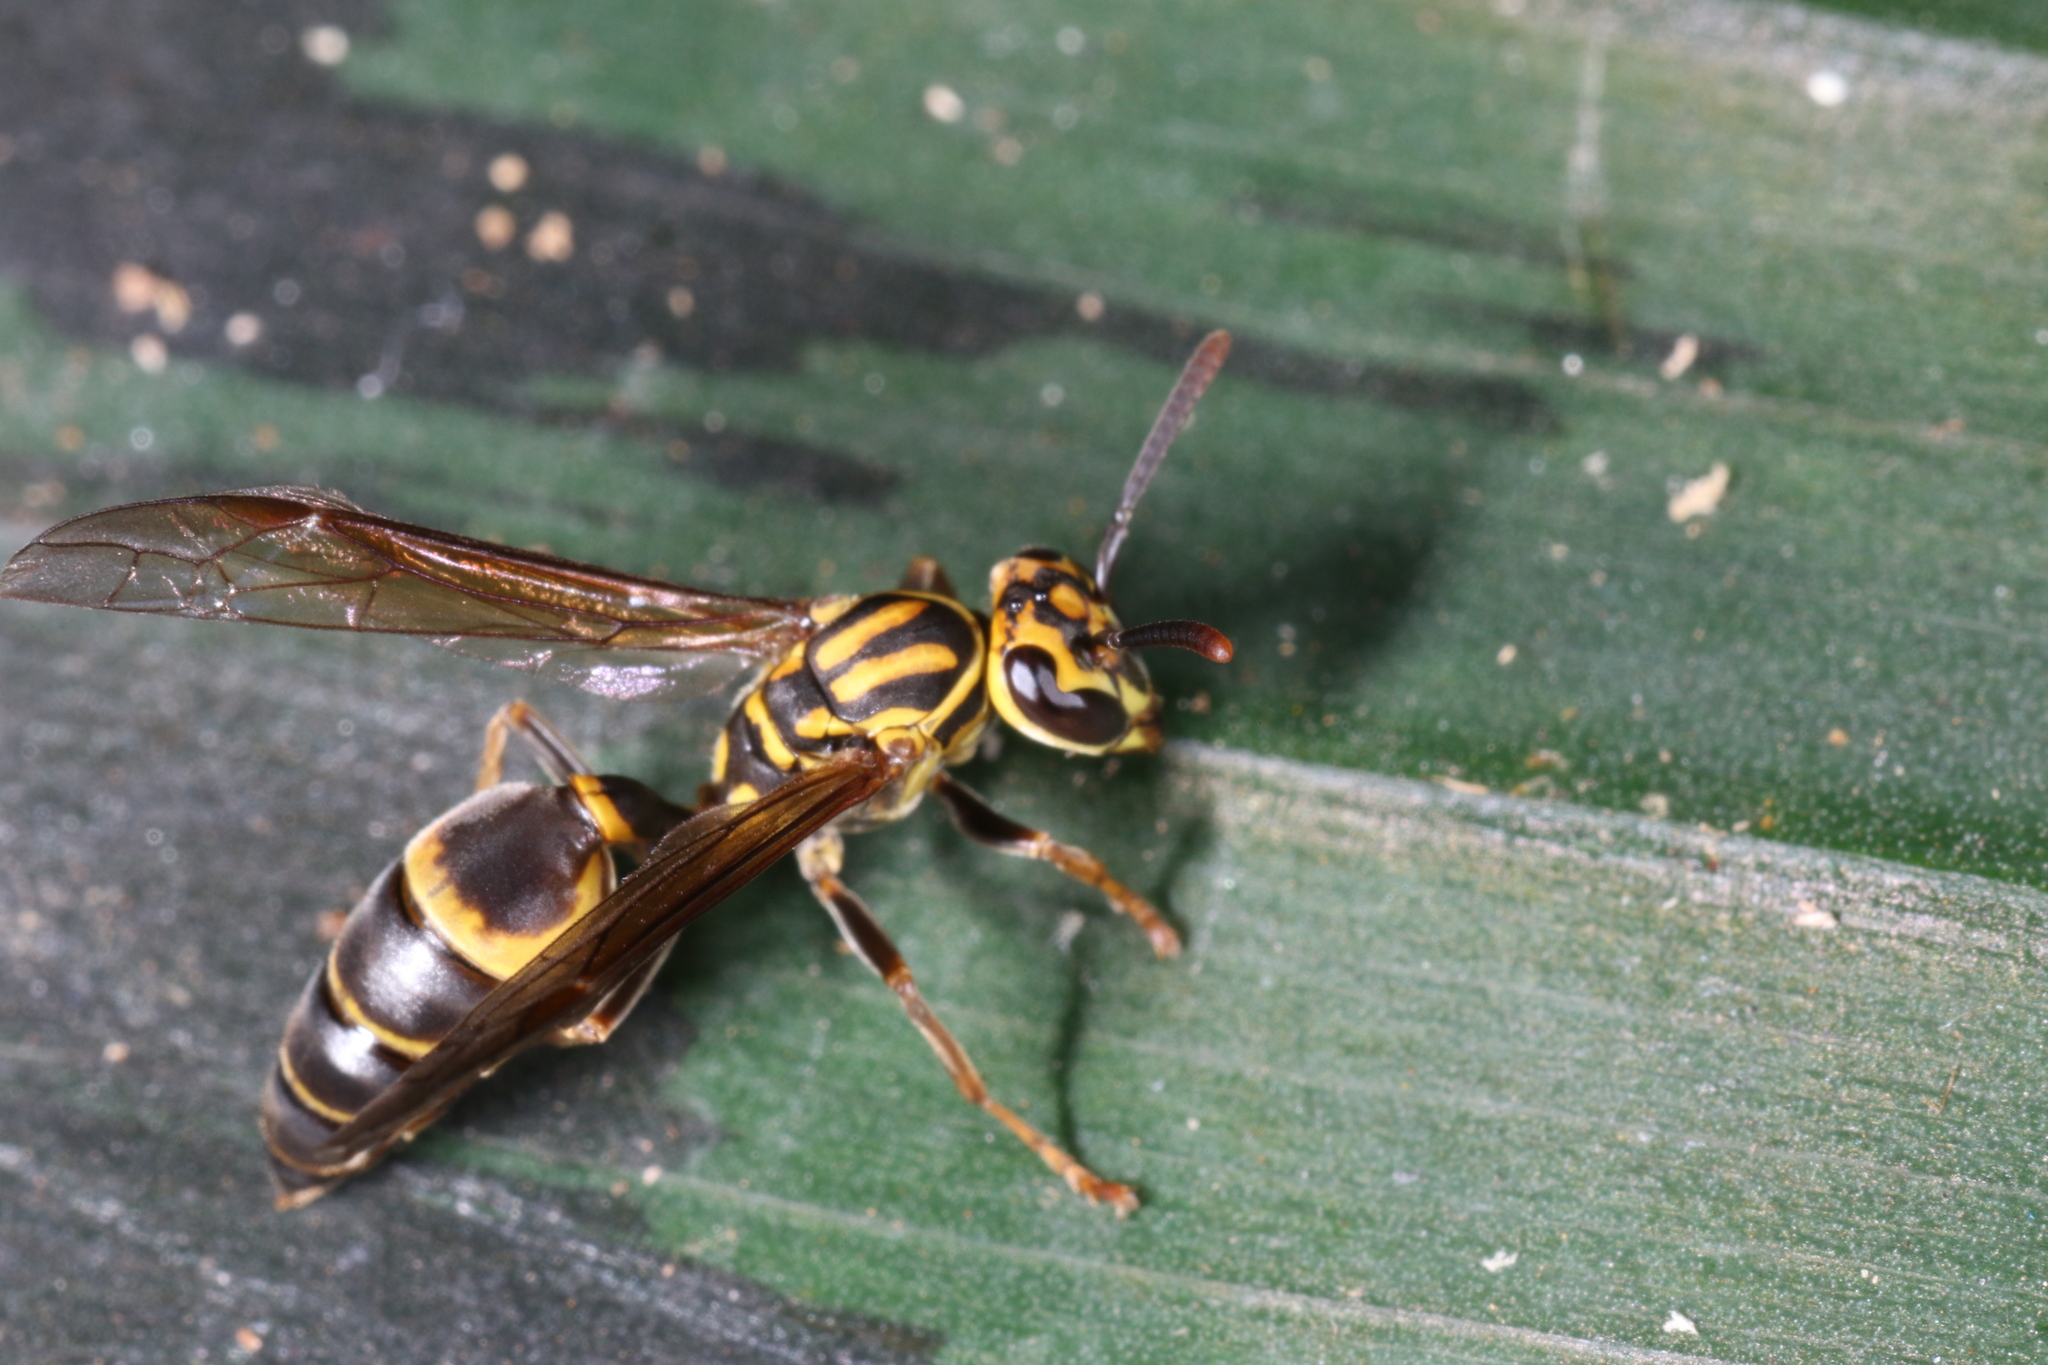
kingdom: Animalia
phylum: Arthropoda
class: Insecta
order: Hymenoptera
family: Eumenidae
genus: Polybia
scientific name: Polybia fastidiosuscula
